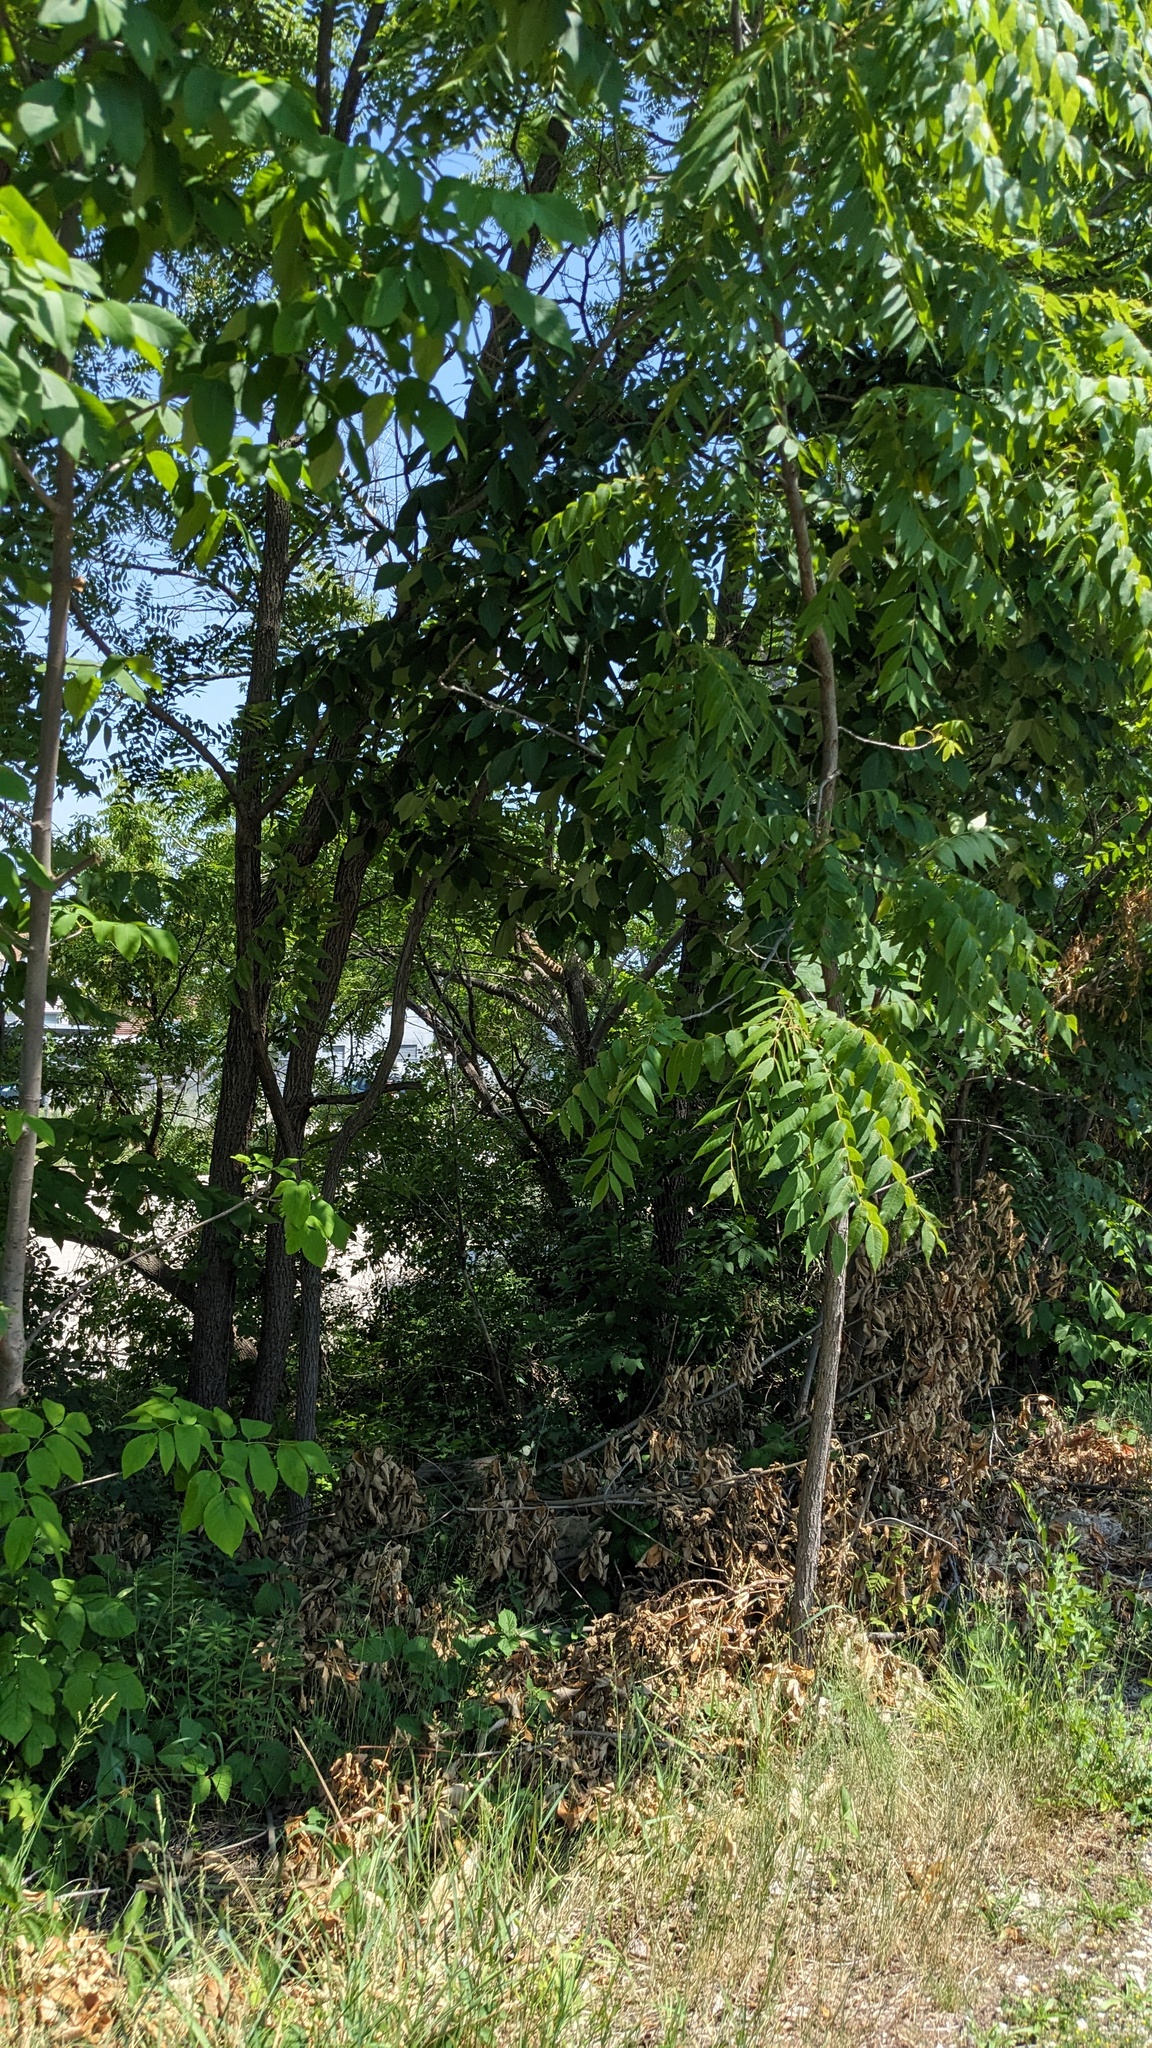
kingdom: Plantae
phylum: Tracheophyta
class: Magnoliopsida
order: Fagales
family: Juglandaceae
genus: Juglans
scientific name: Juglans nigra
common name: Black walnut
